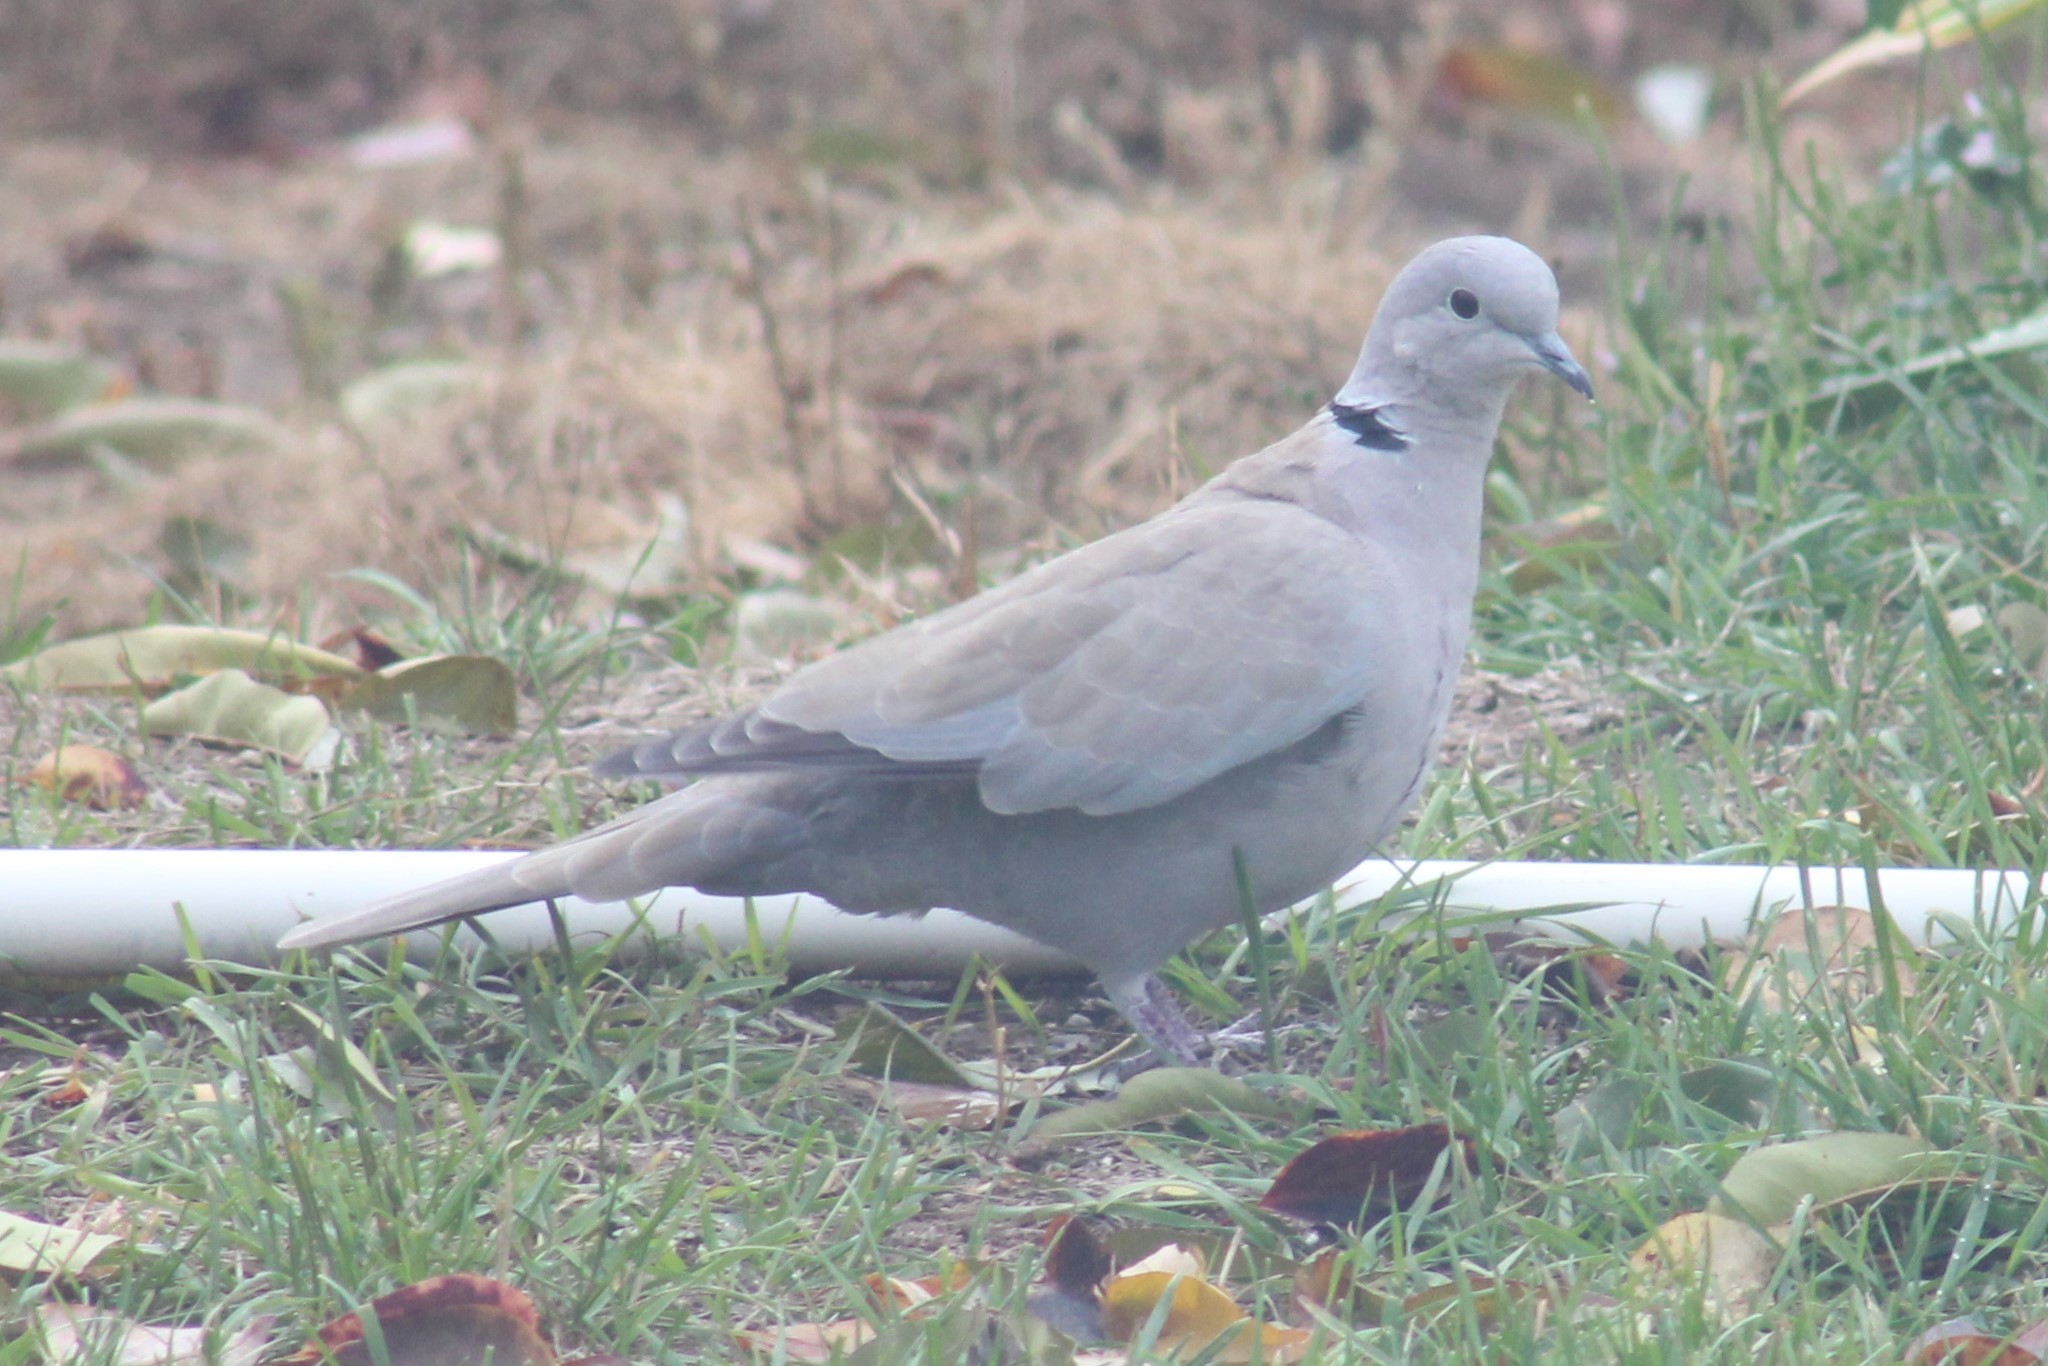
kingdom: Animalia
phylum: Chordata
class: Aves
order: Columbiformes
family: Columbidae
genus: Streptopelia
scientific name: Streptopelia decaocto
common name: Eurasian collared dove
